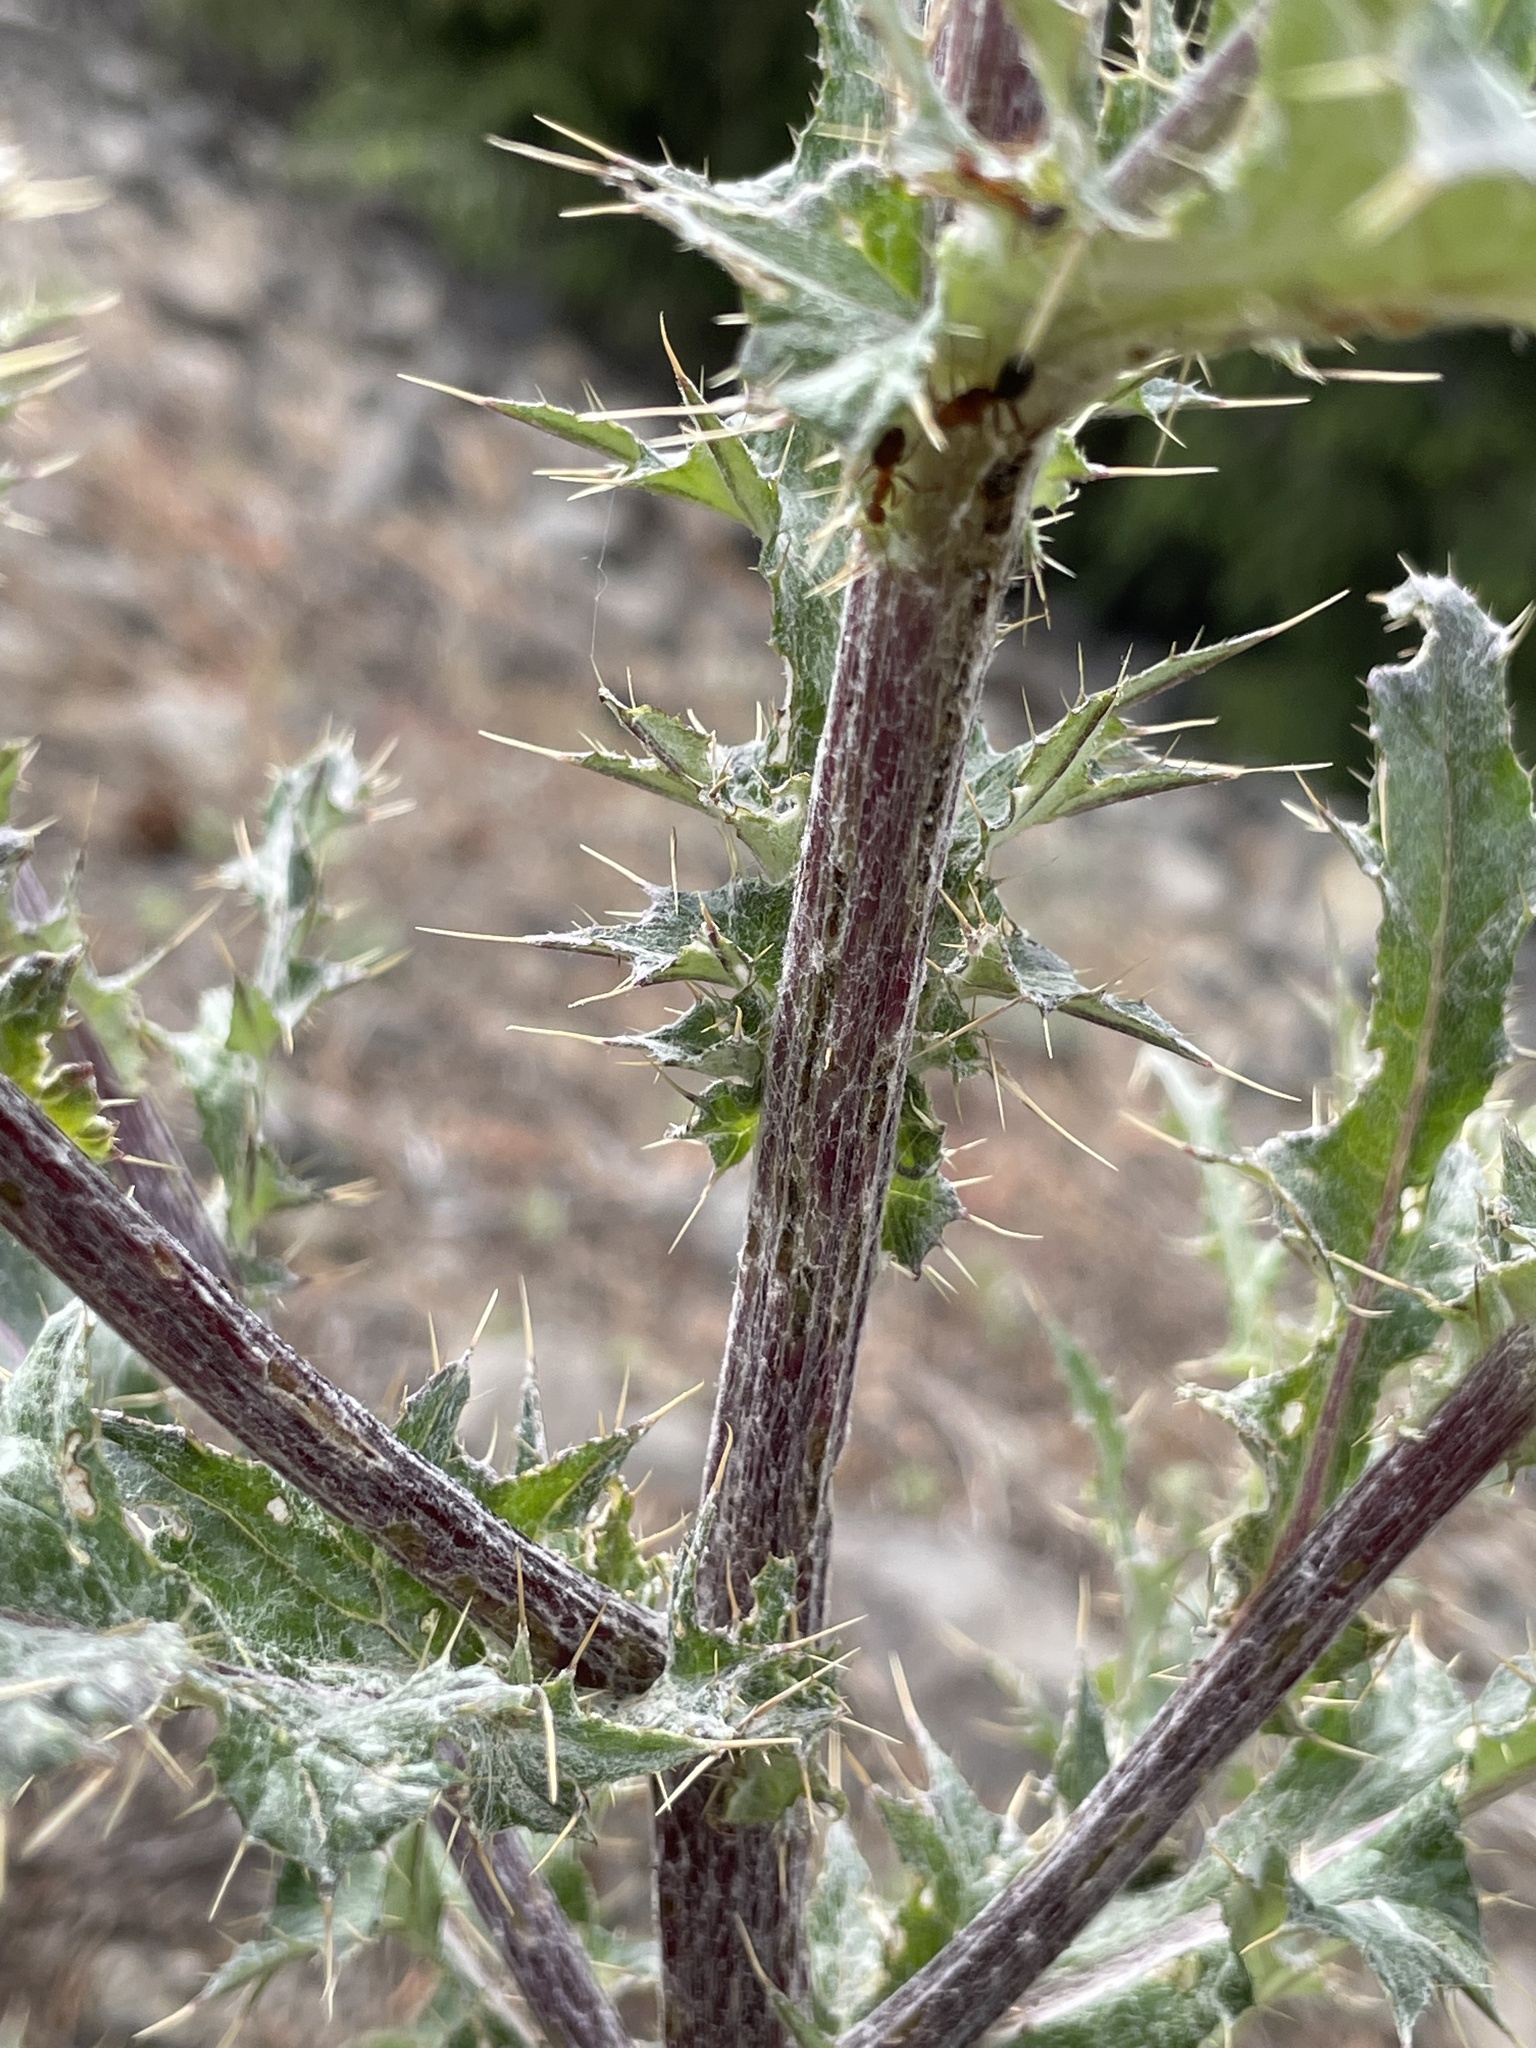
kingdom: Plantae
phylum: Tracheophyta
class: Magnoliopsida
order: Asterales
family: Asteraceae
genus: Cirsium
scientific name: Cirsium inamoenum
